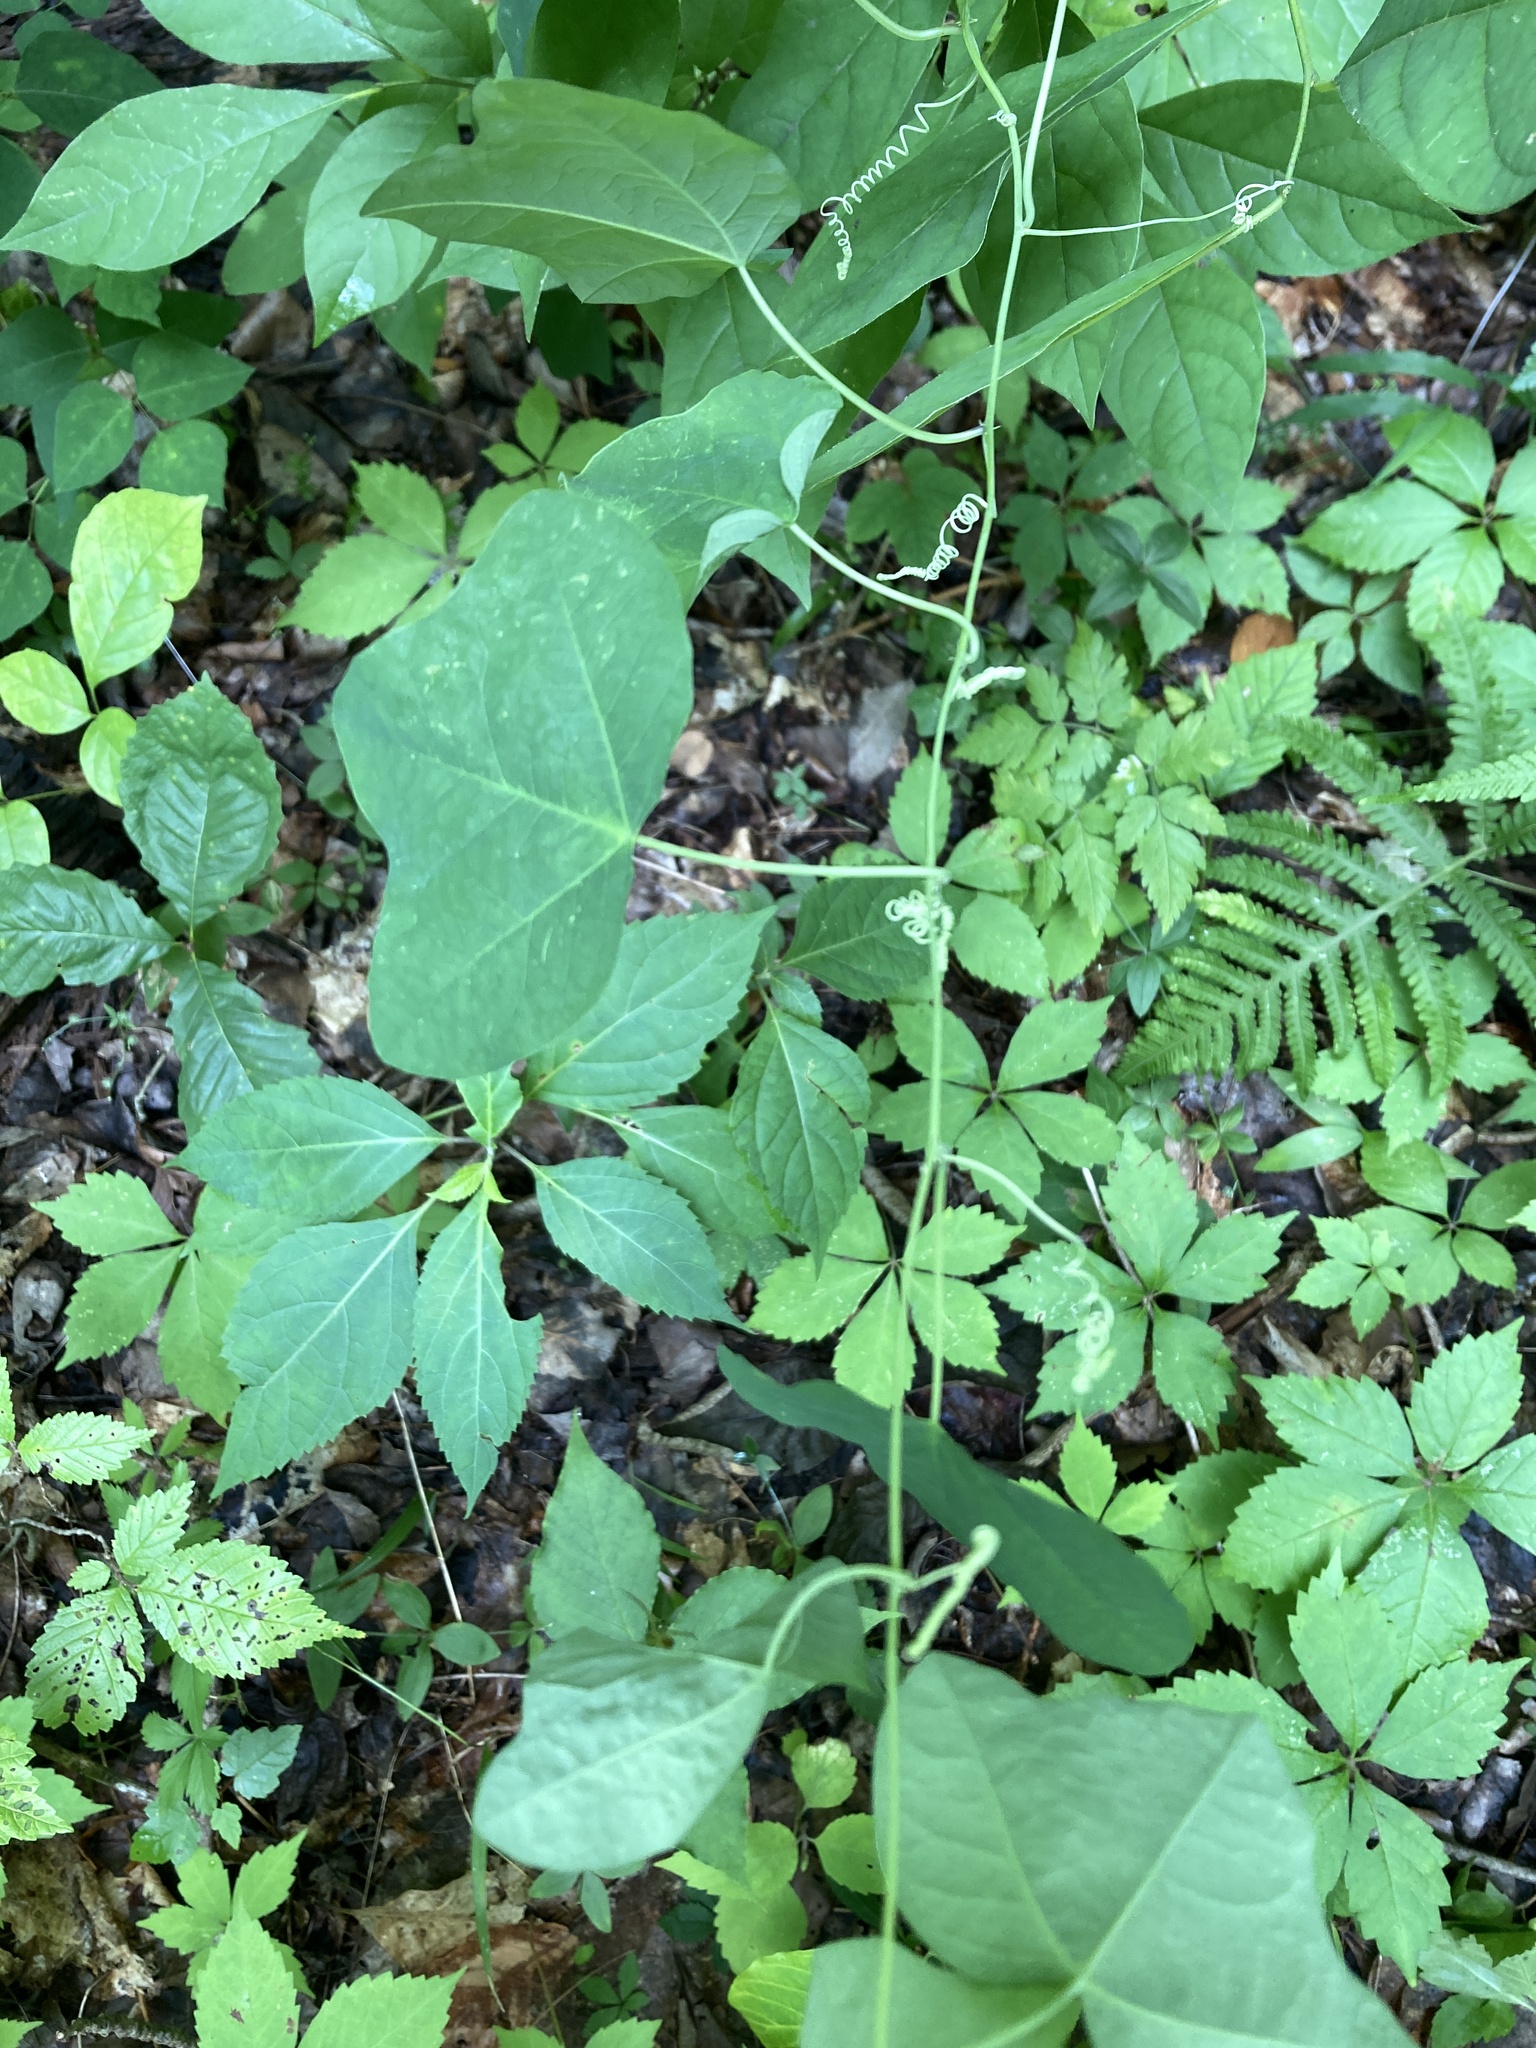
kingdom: Plantae
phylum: Tracheophyta
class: Magnoliopsida
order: Malpighiales
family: Passifloraceae
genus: Passiflora
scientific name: Passiflora lutea
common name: Yellow passionflower
